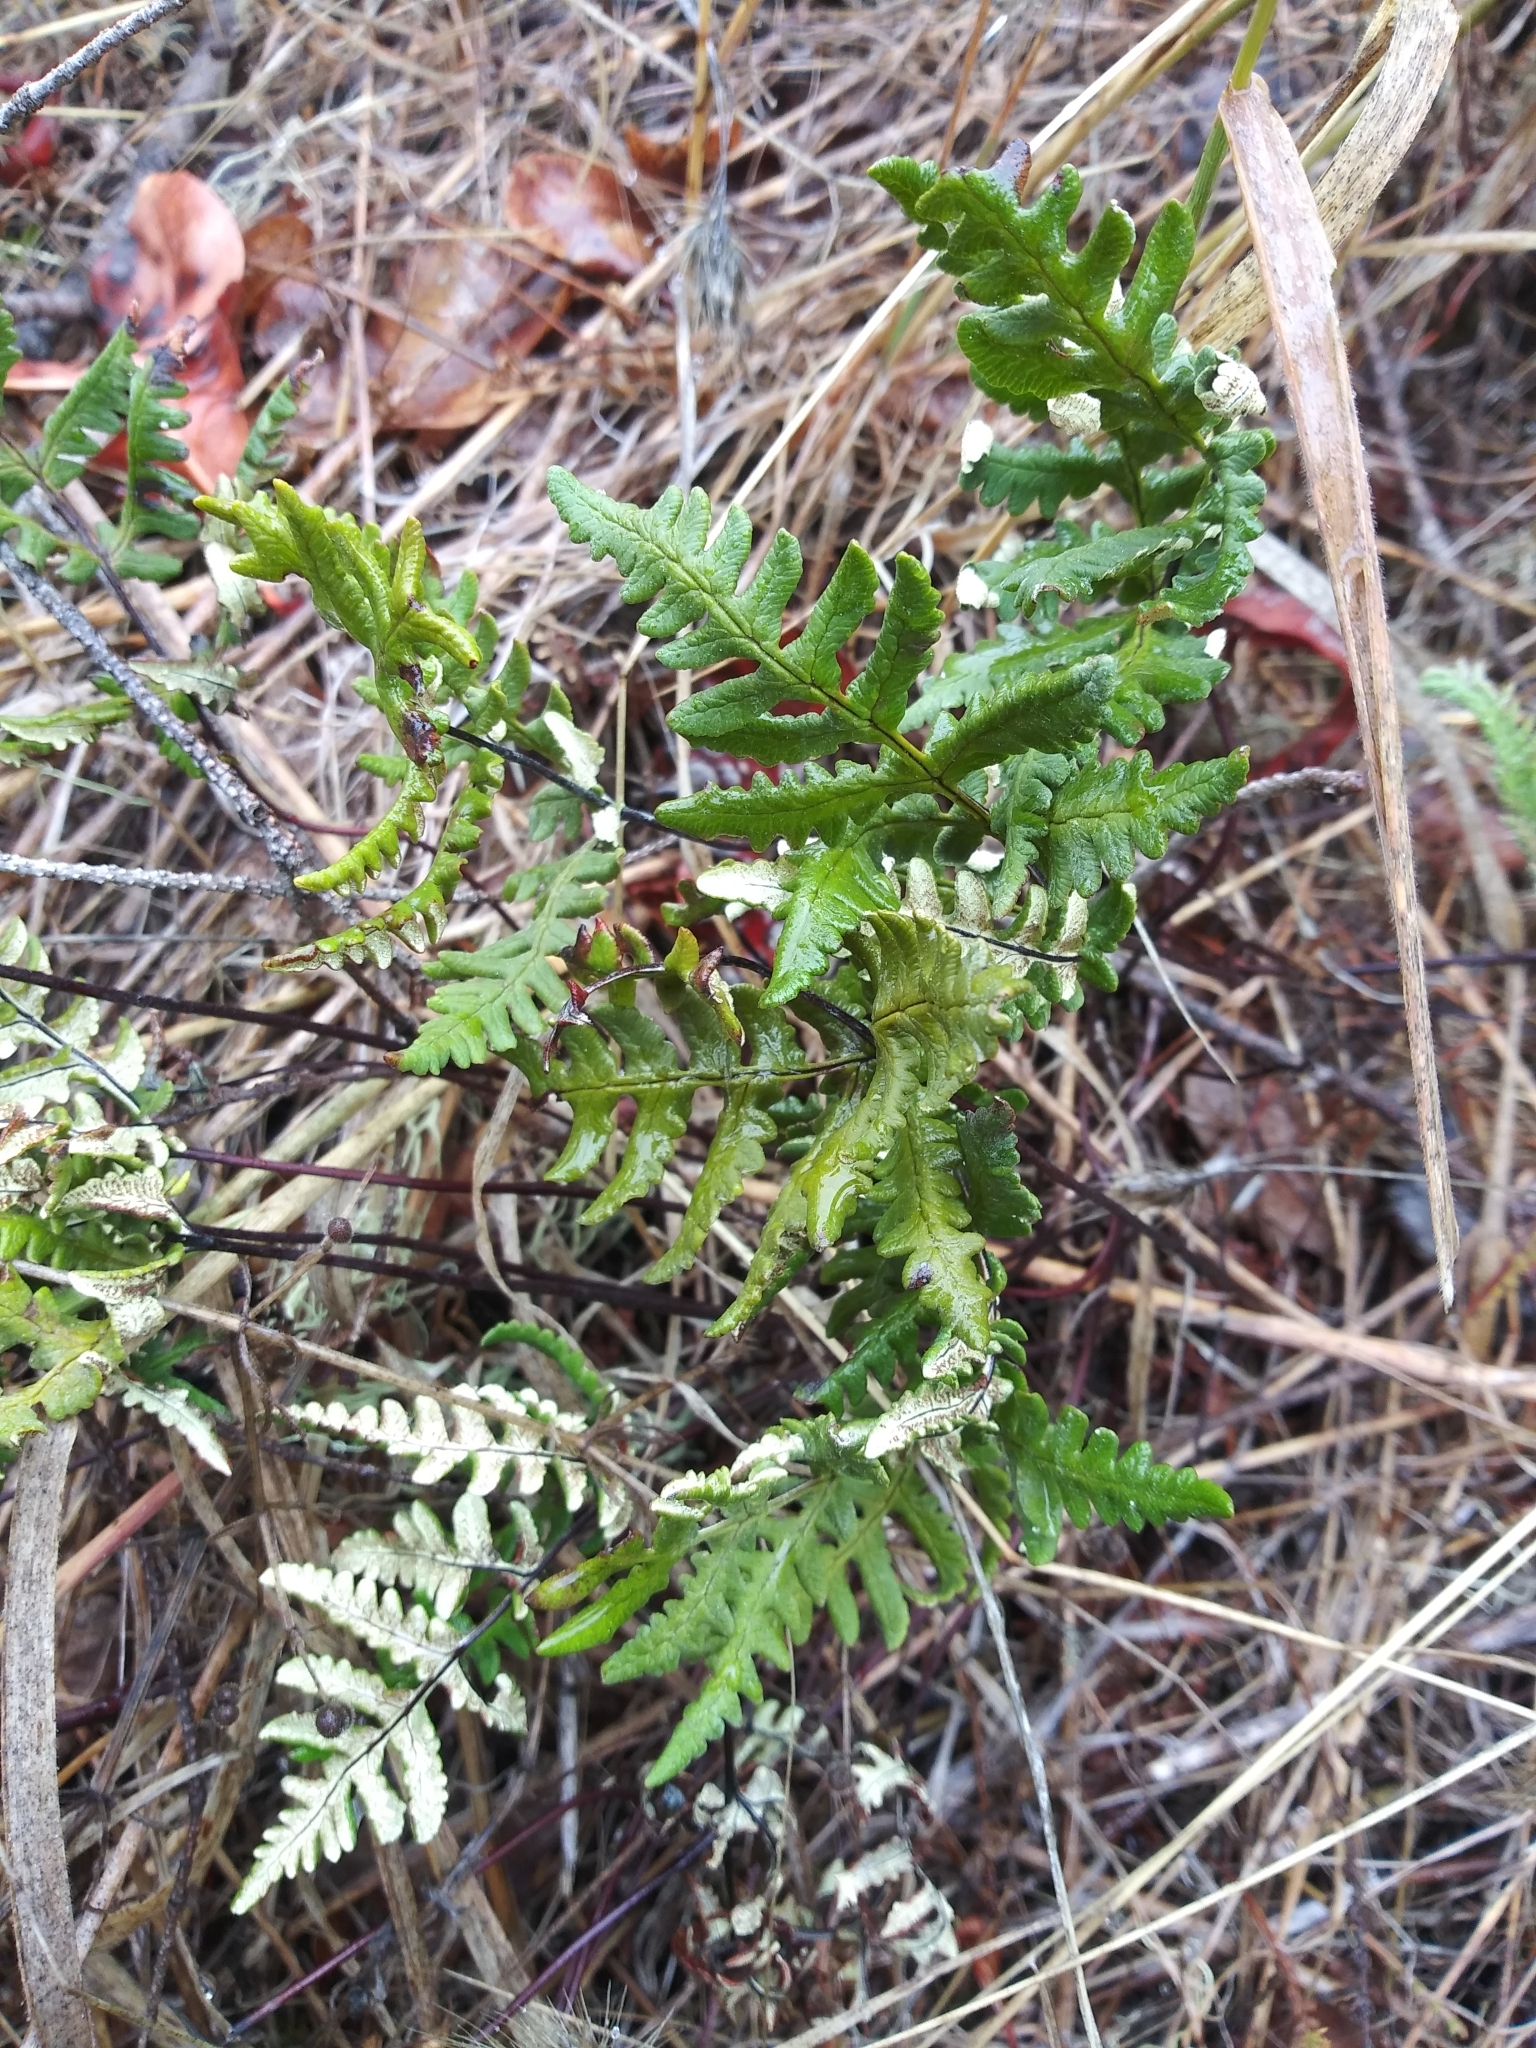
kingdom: Plantae
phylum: Tracheophyta
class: Polypodiopsida
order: Polypodiales
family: Pteridaceae
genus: Pentagramma
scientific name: Pentagramma triangularis
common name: Gold fern
